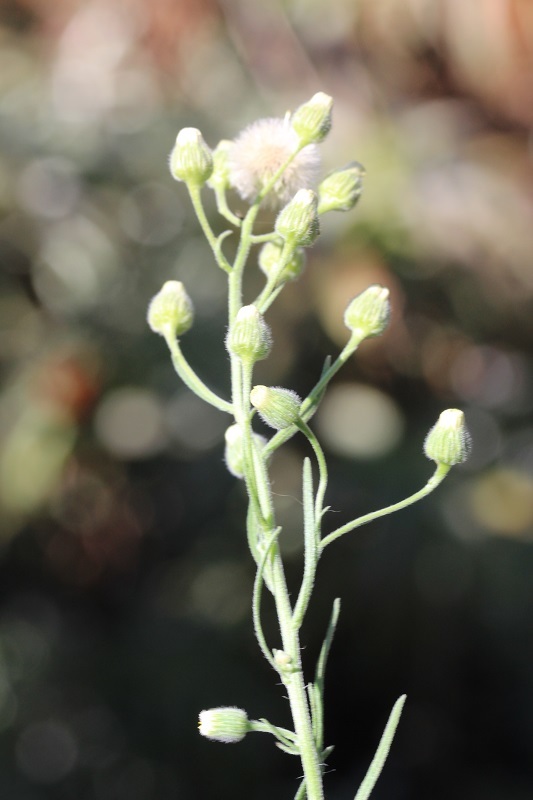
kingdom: Plantae
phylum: Tracheophyta
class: Magnoliopsida
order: Asterales
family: Asteraceae
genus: Erigeron
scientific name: Erigeron bonariensis
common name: Argentine fleabane
